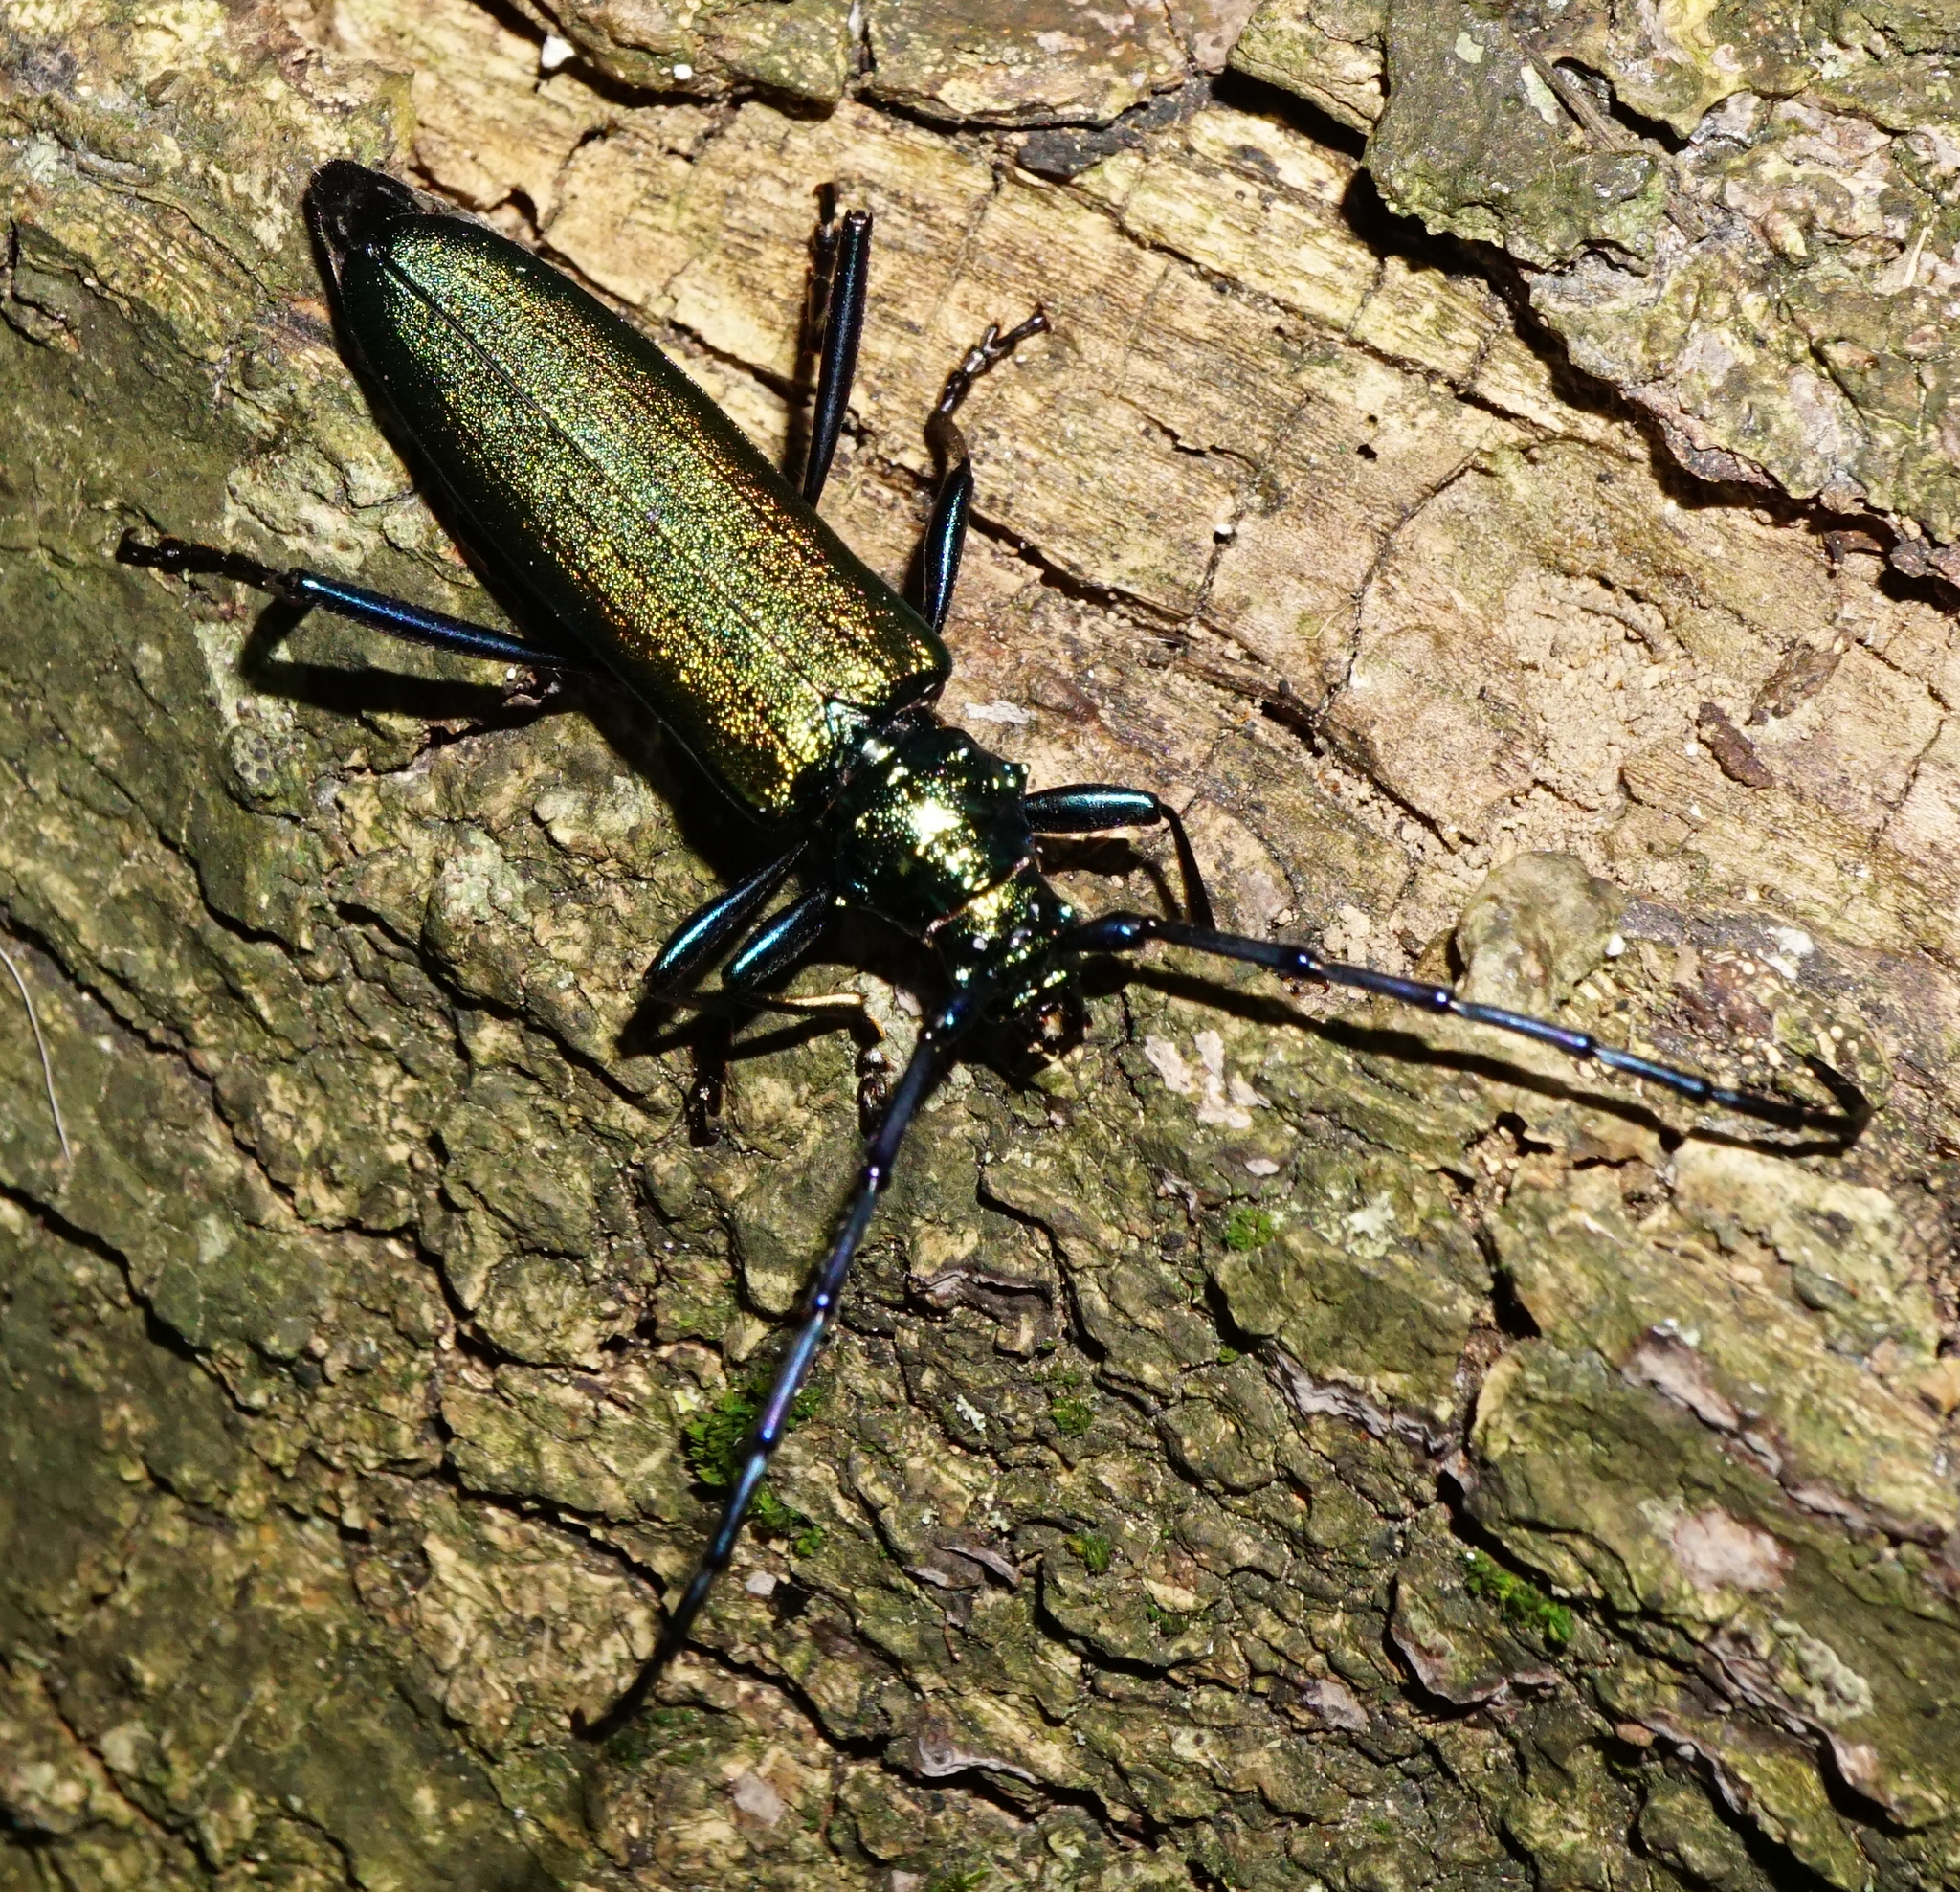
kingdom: Animalia
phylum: Arthropoda
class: Insecta
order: Coleoptera
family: Cerambycidae
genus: Aromia
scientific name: Aromia moschata
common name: Musk beetle
